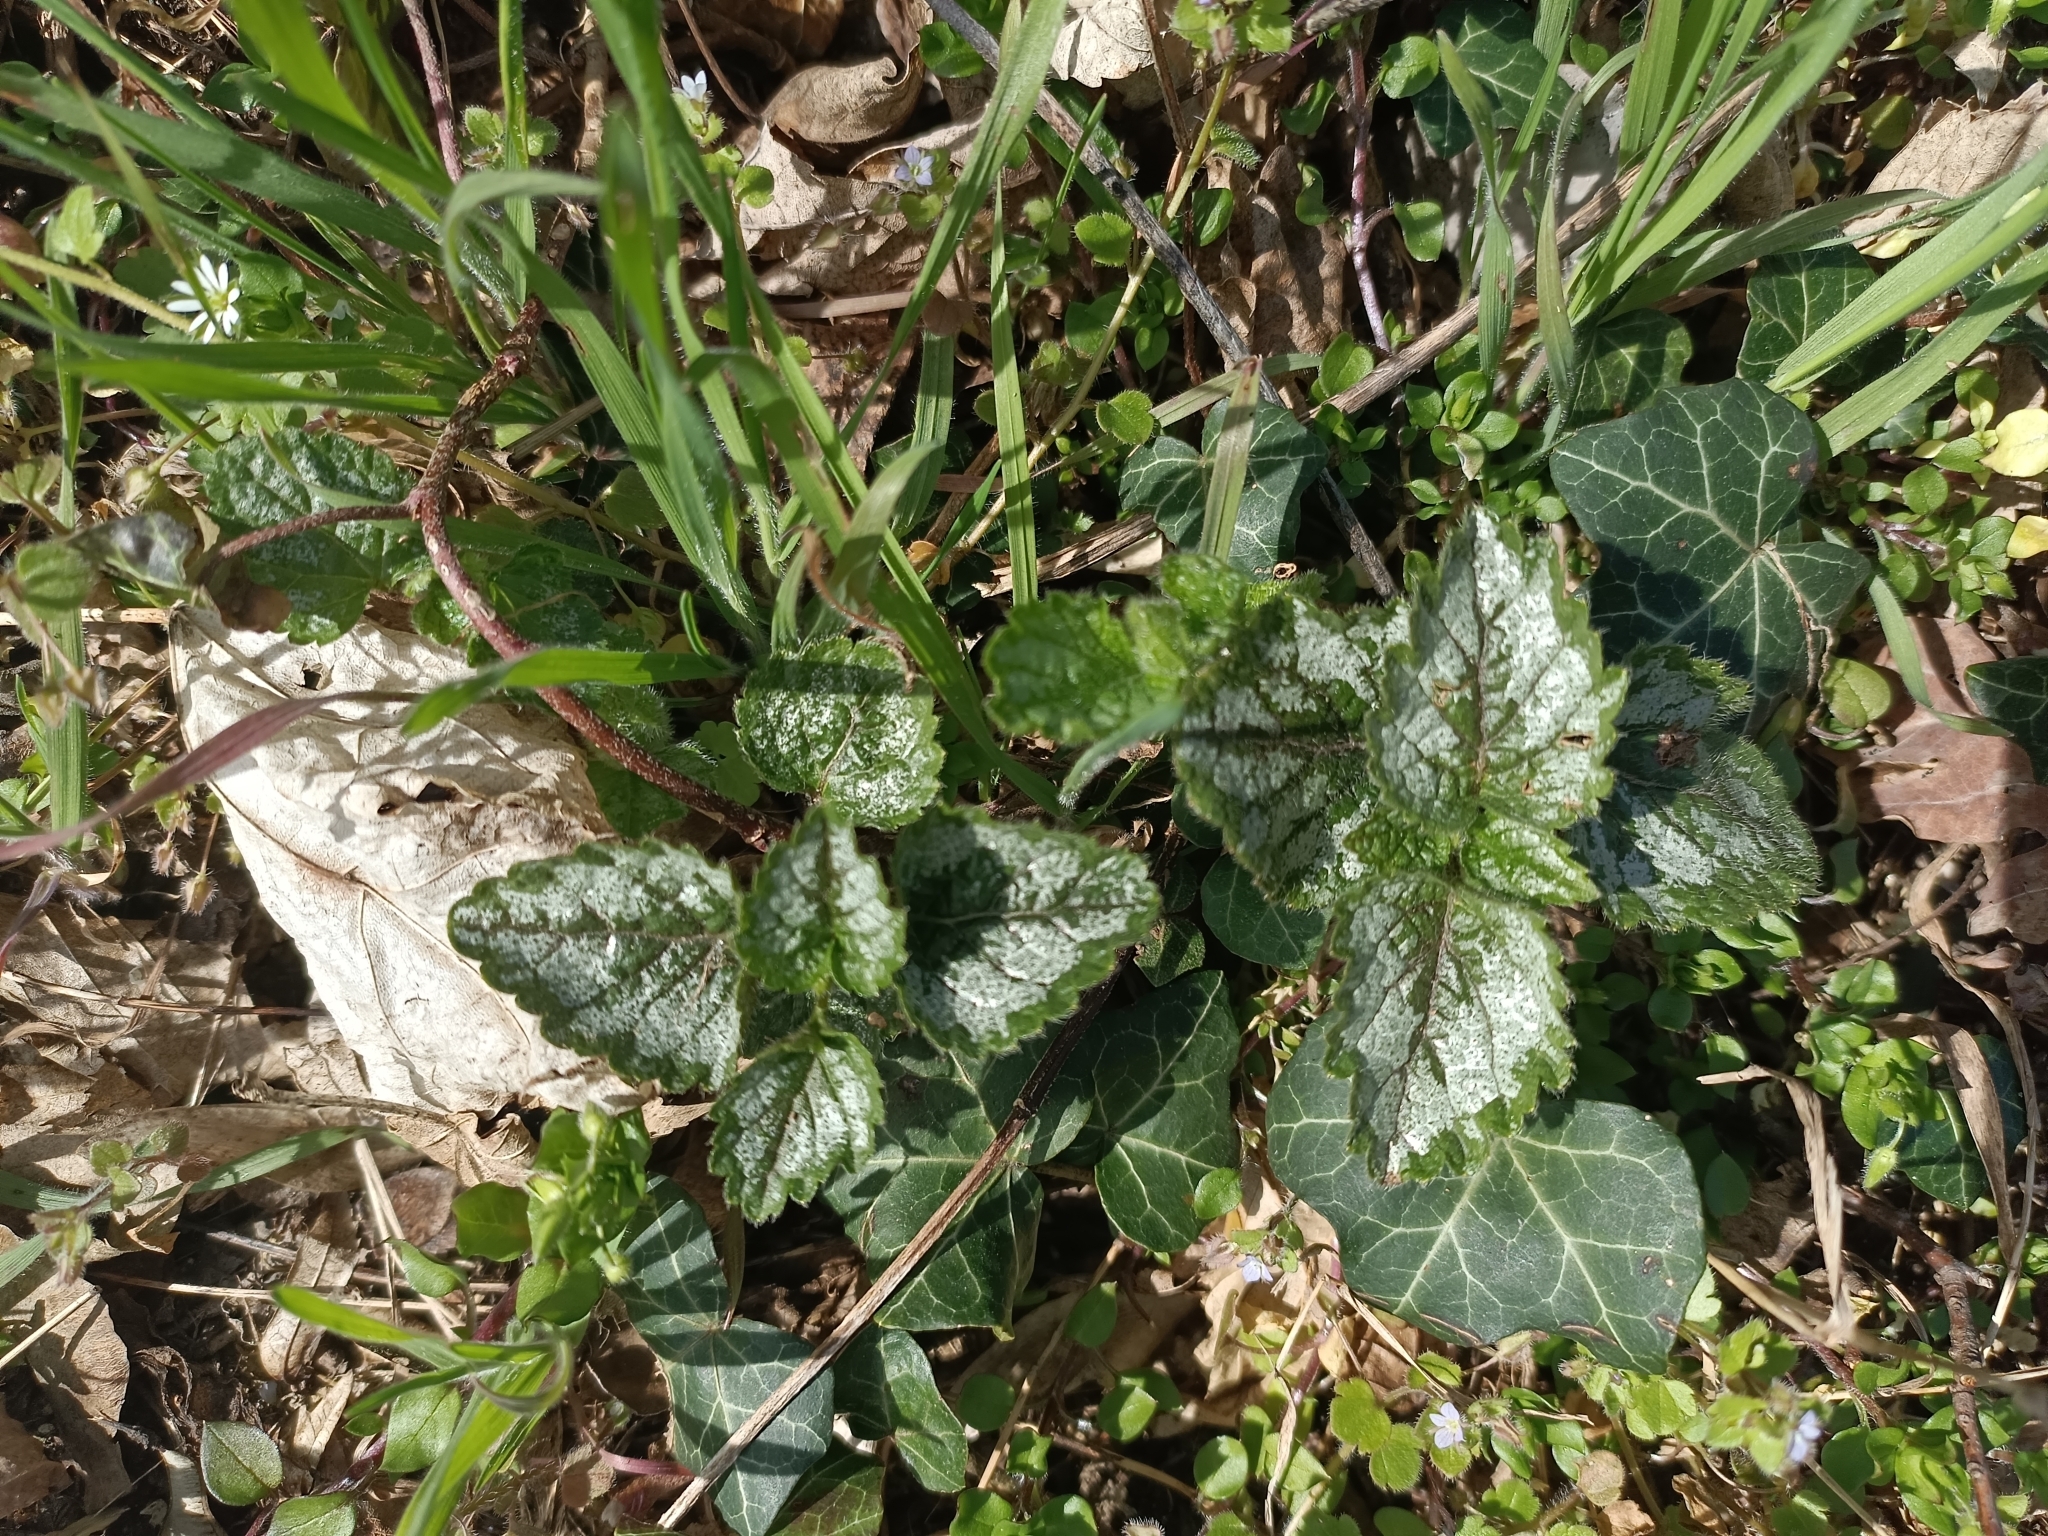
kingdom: Plantae
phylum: Tracheophyta
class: Magnoliopsida
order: Lamiales
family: Lamiaceae
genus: Lamium
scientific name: Lamium galeobdolon
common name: Yellow archangel
